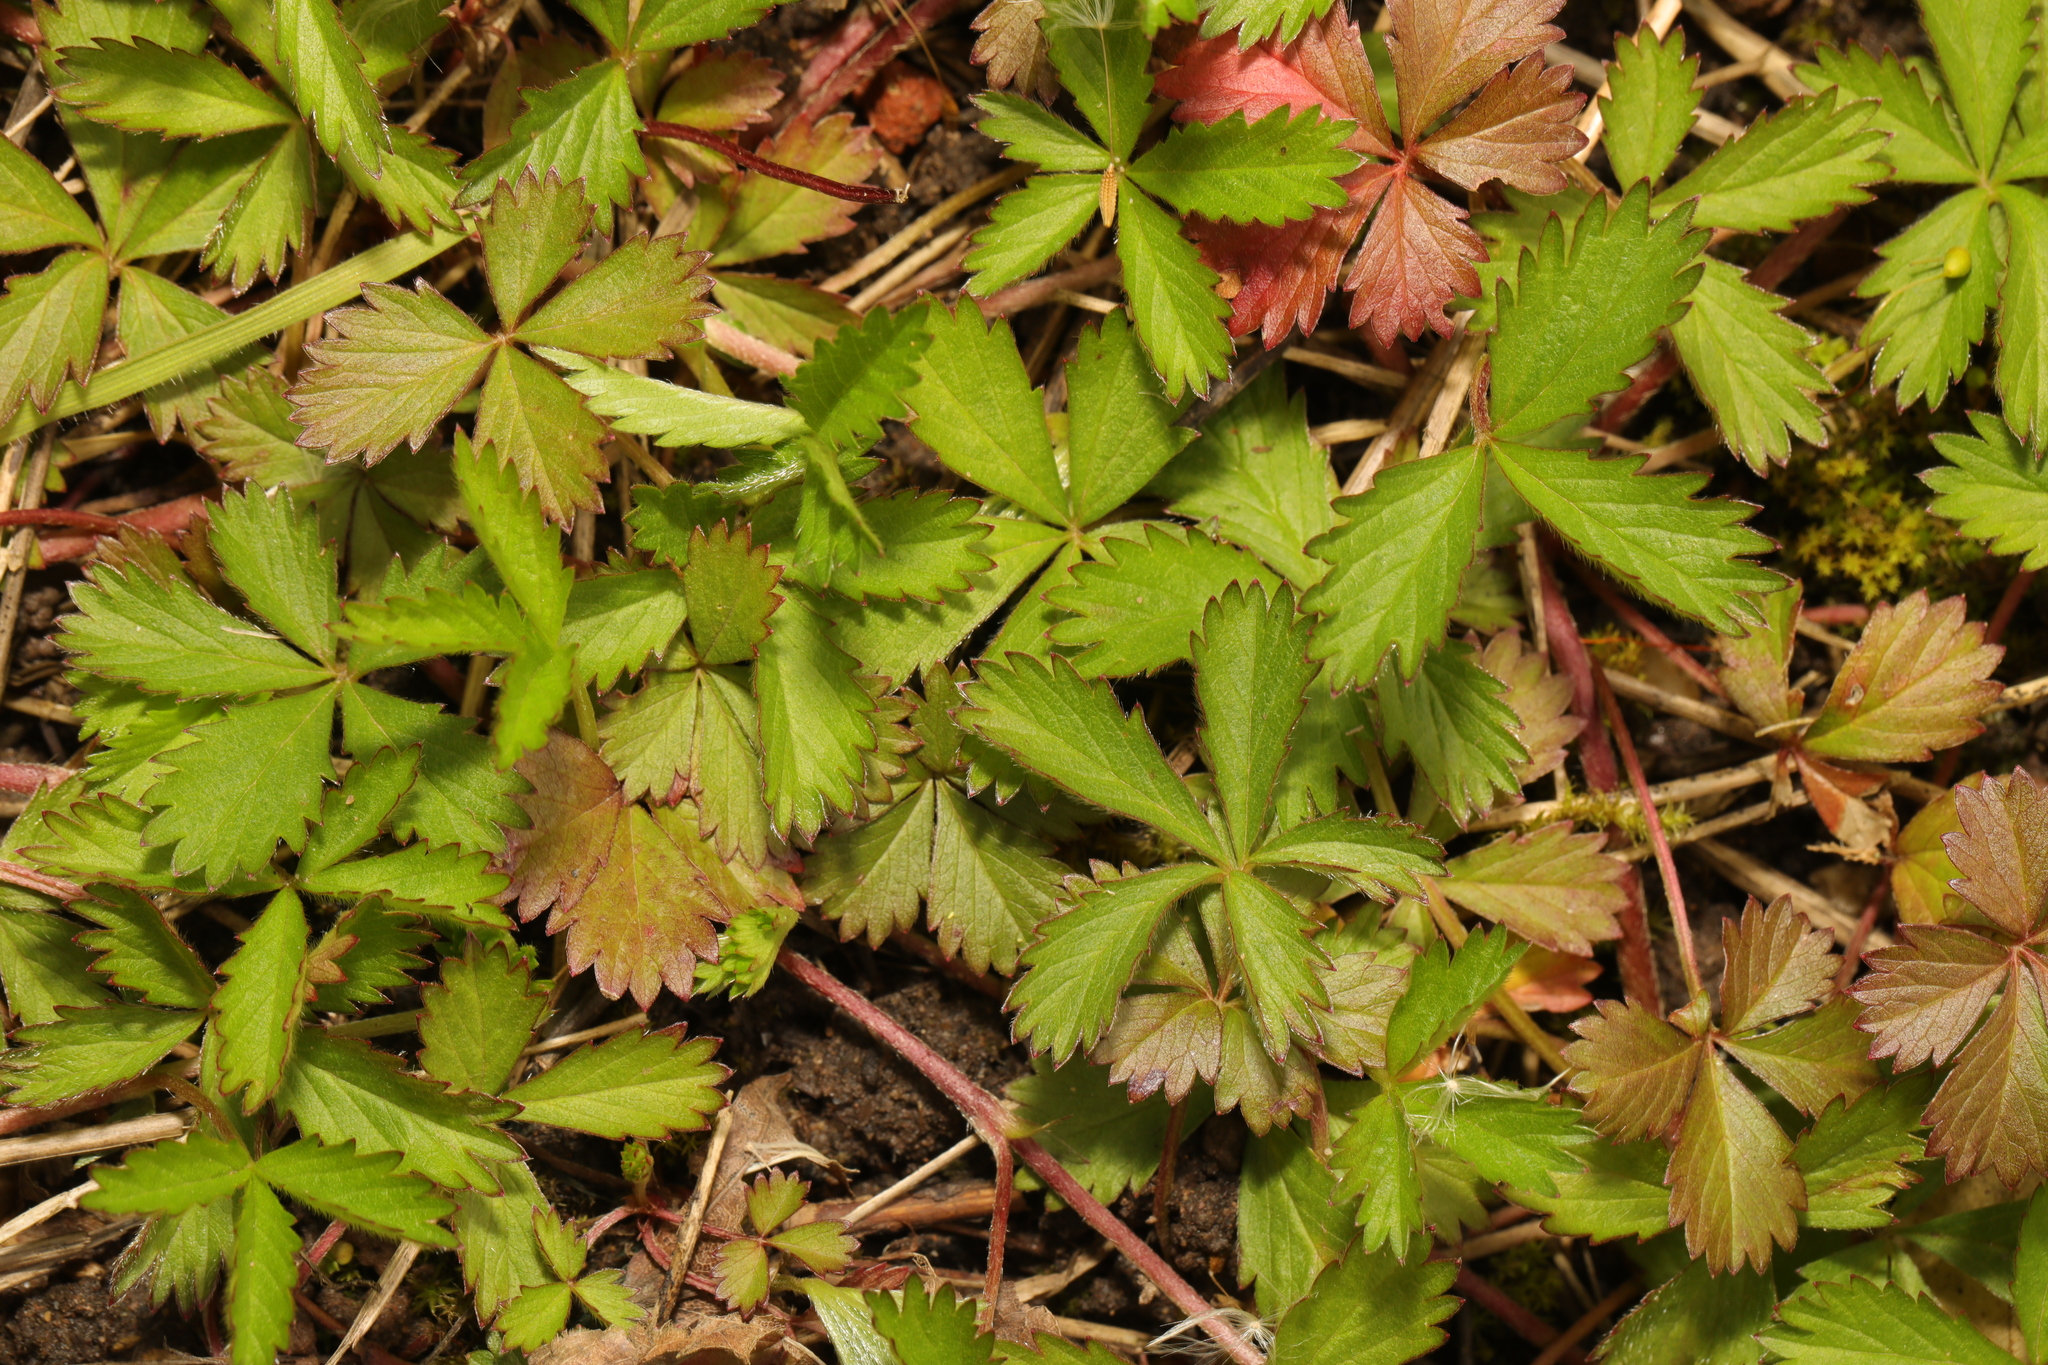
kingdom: Plantae
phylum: Tracheophyta
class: Magnoliopsida
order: Rosales
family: Rosaceae
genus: Potentilla
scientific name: Potentilla reptans
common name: Creeping cinquefoil
